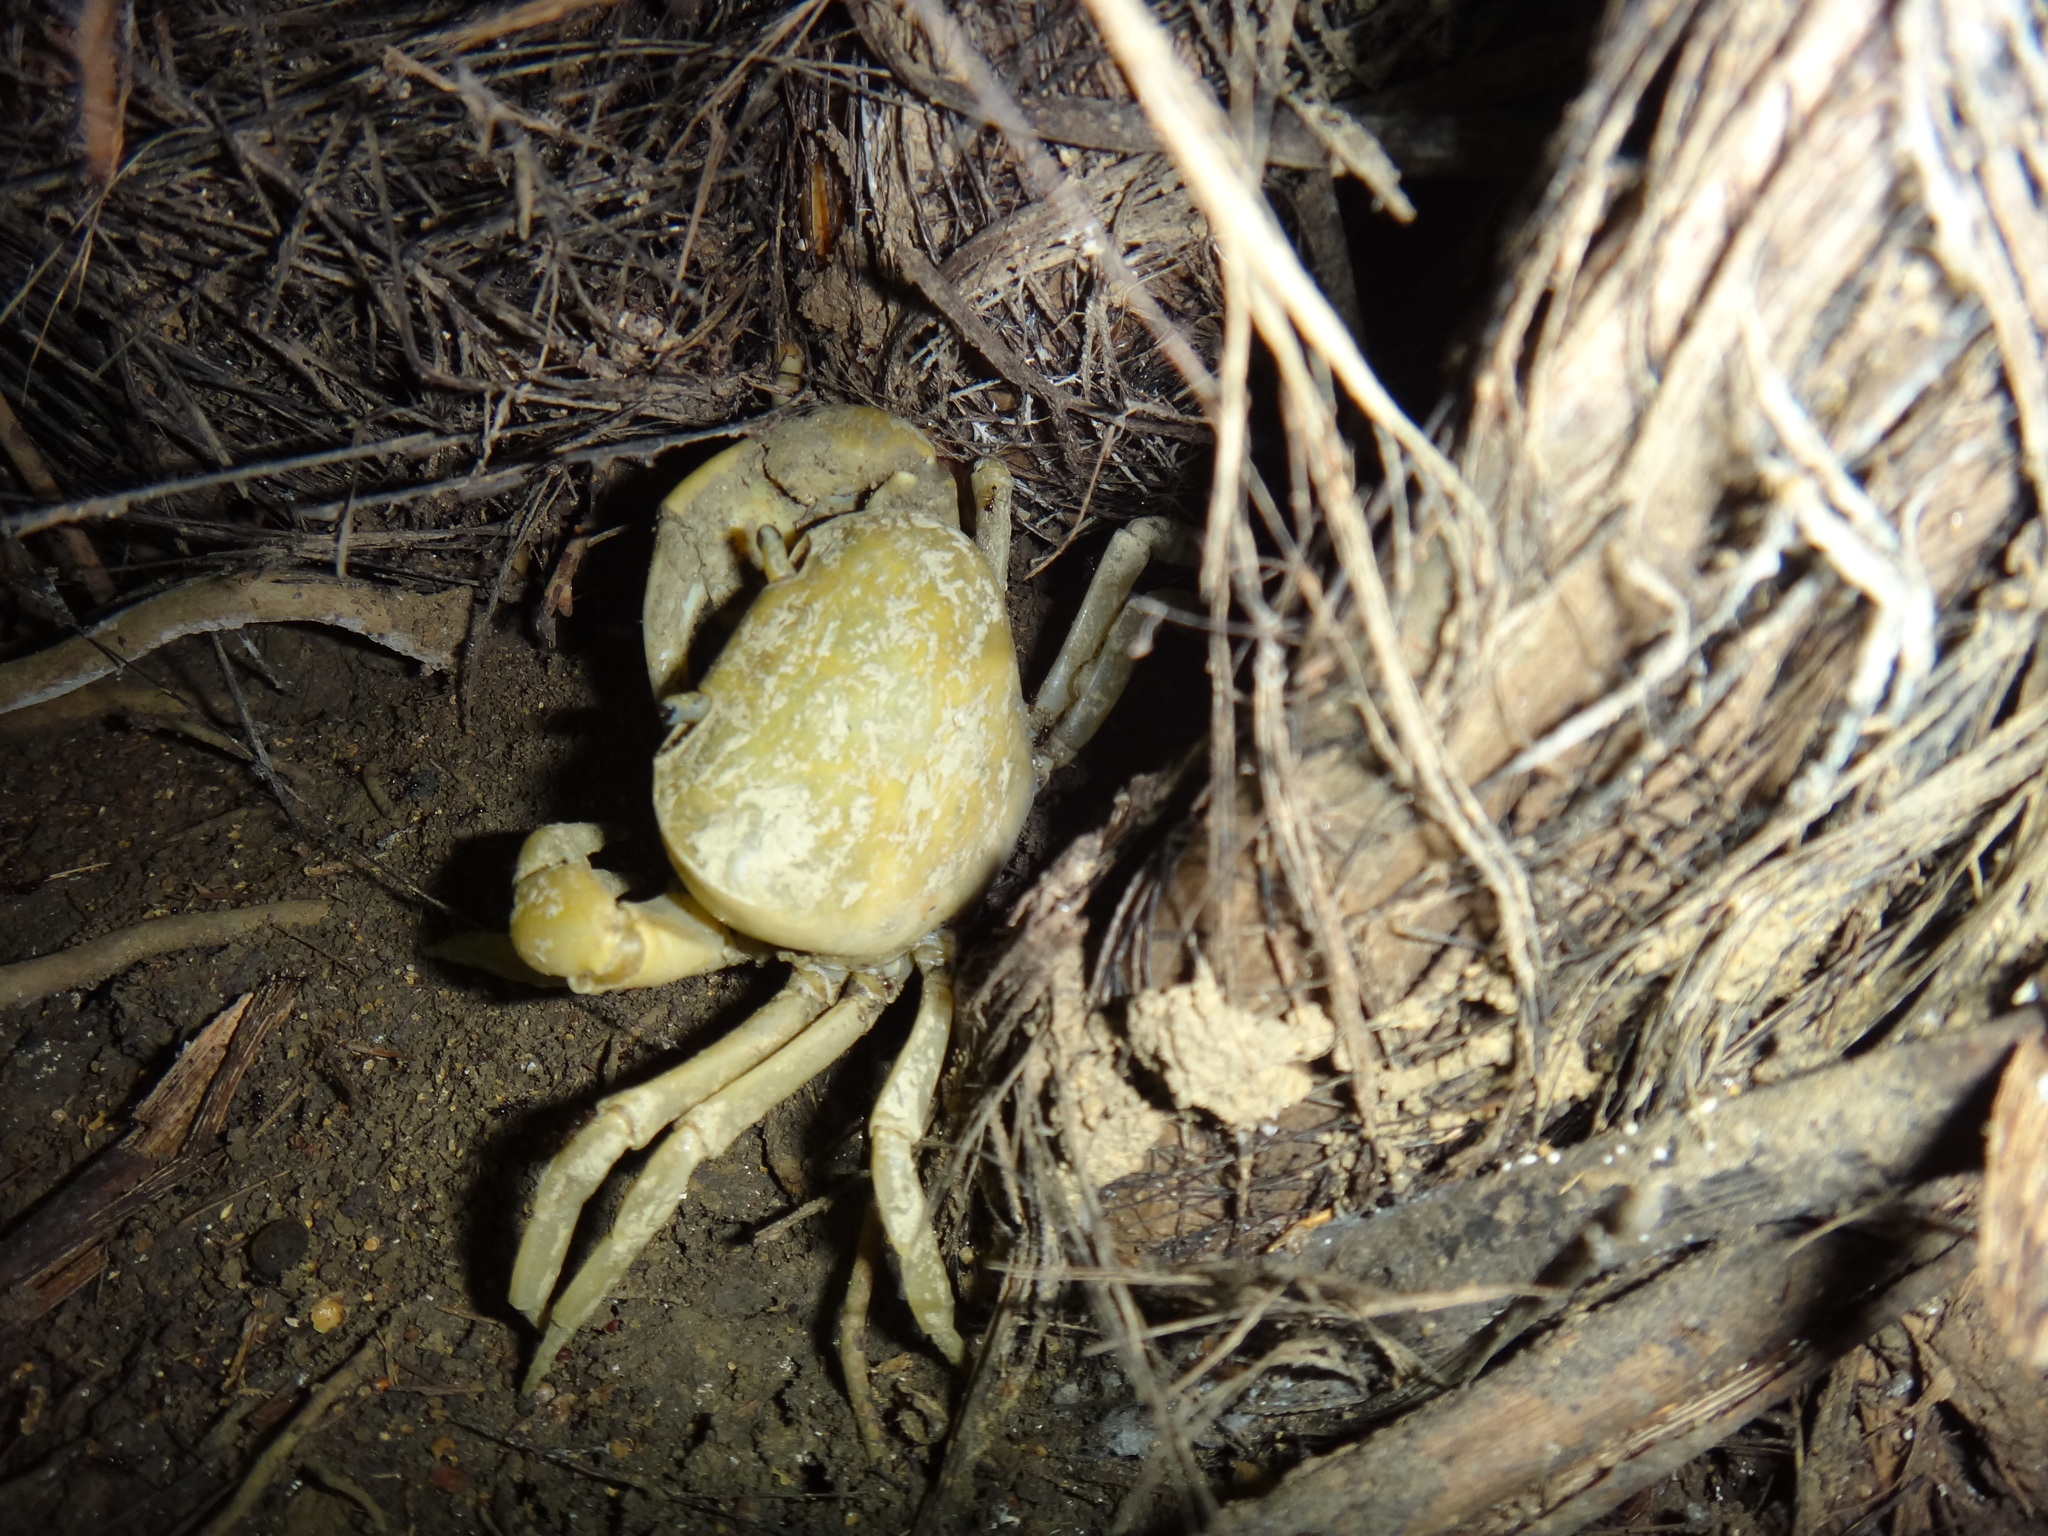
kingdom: Animalia
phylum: Arthropoda
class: Malacostraca
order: Decapoda
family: Potamidae
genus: Geothelphusa
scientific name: Geothelphusa makatao
